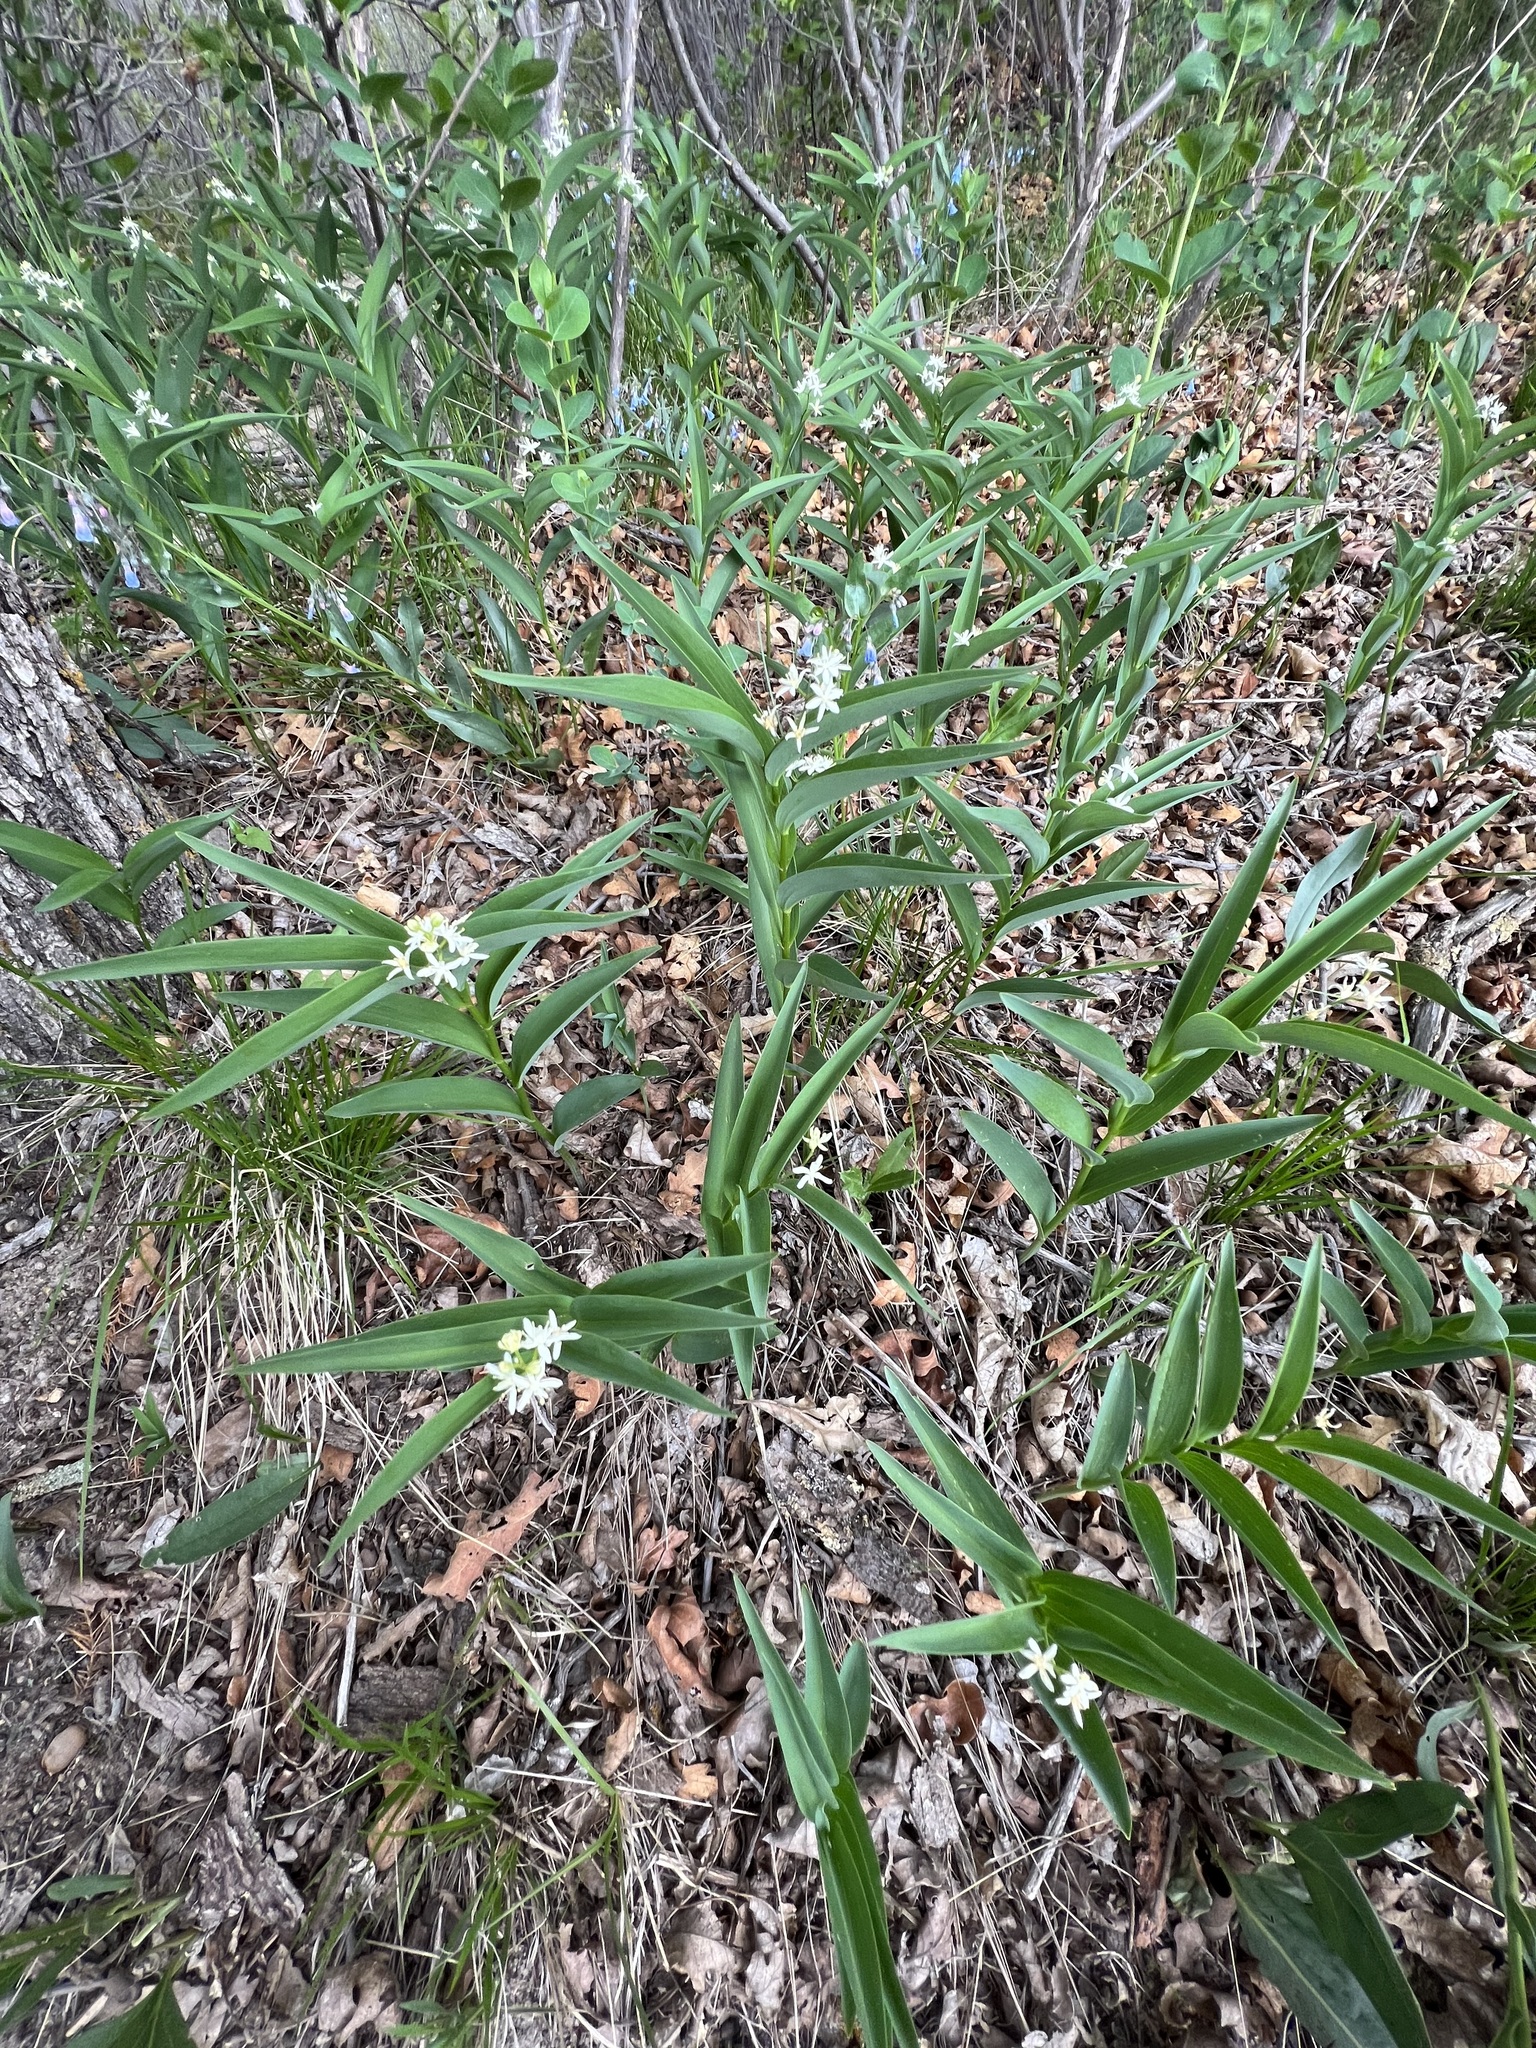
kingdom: Plantae
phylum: Tracheophyta
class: Liliopsida
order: Asparagales
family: Asparagaceae
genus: Maianthemum
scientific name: Maianthemum stellatum
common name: Little false solomon's seal
